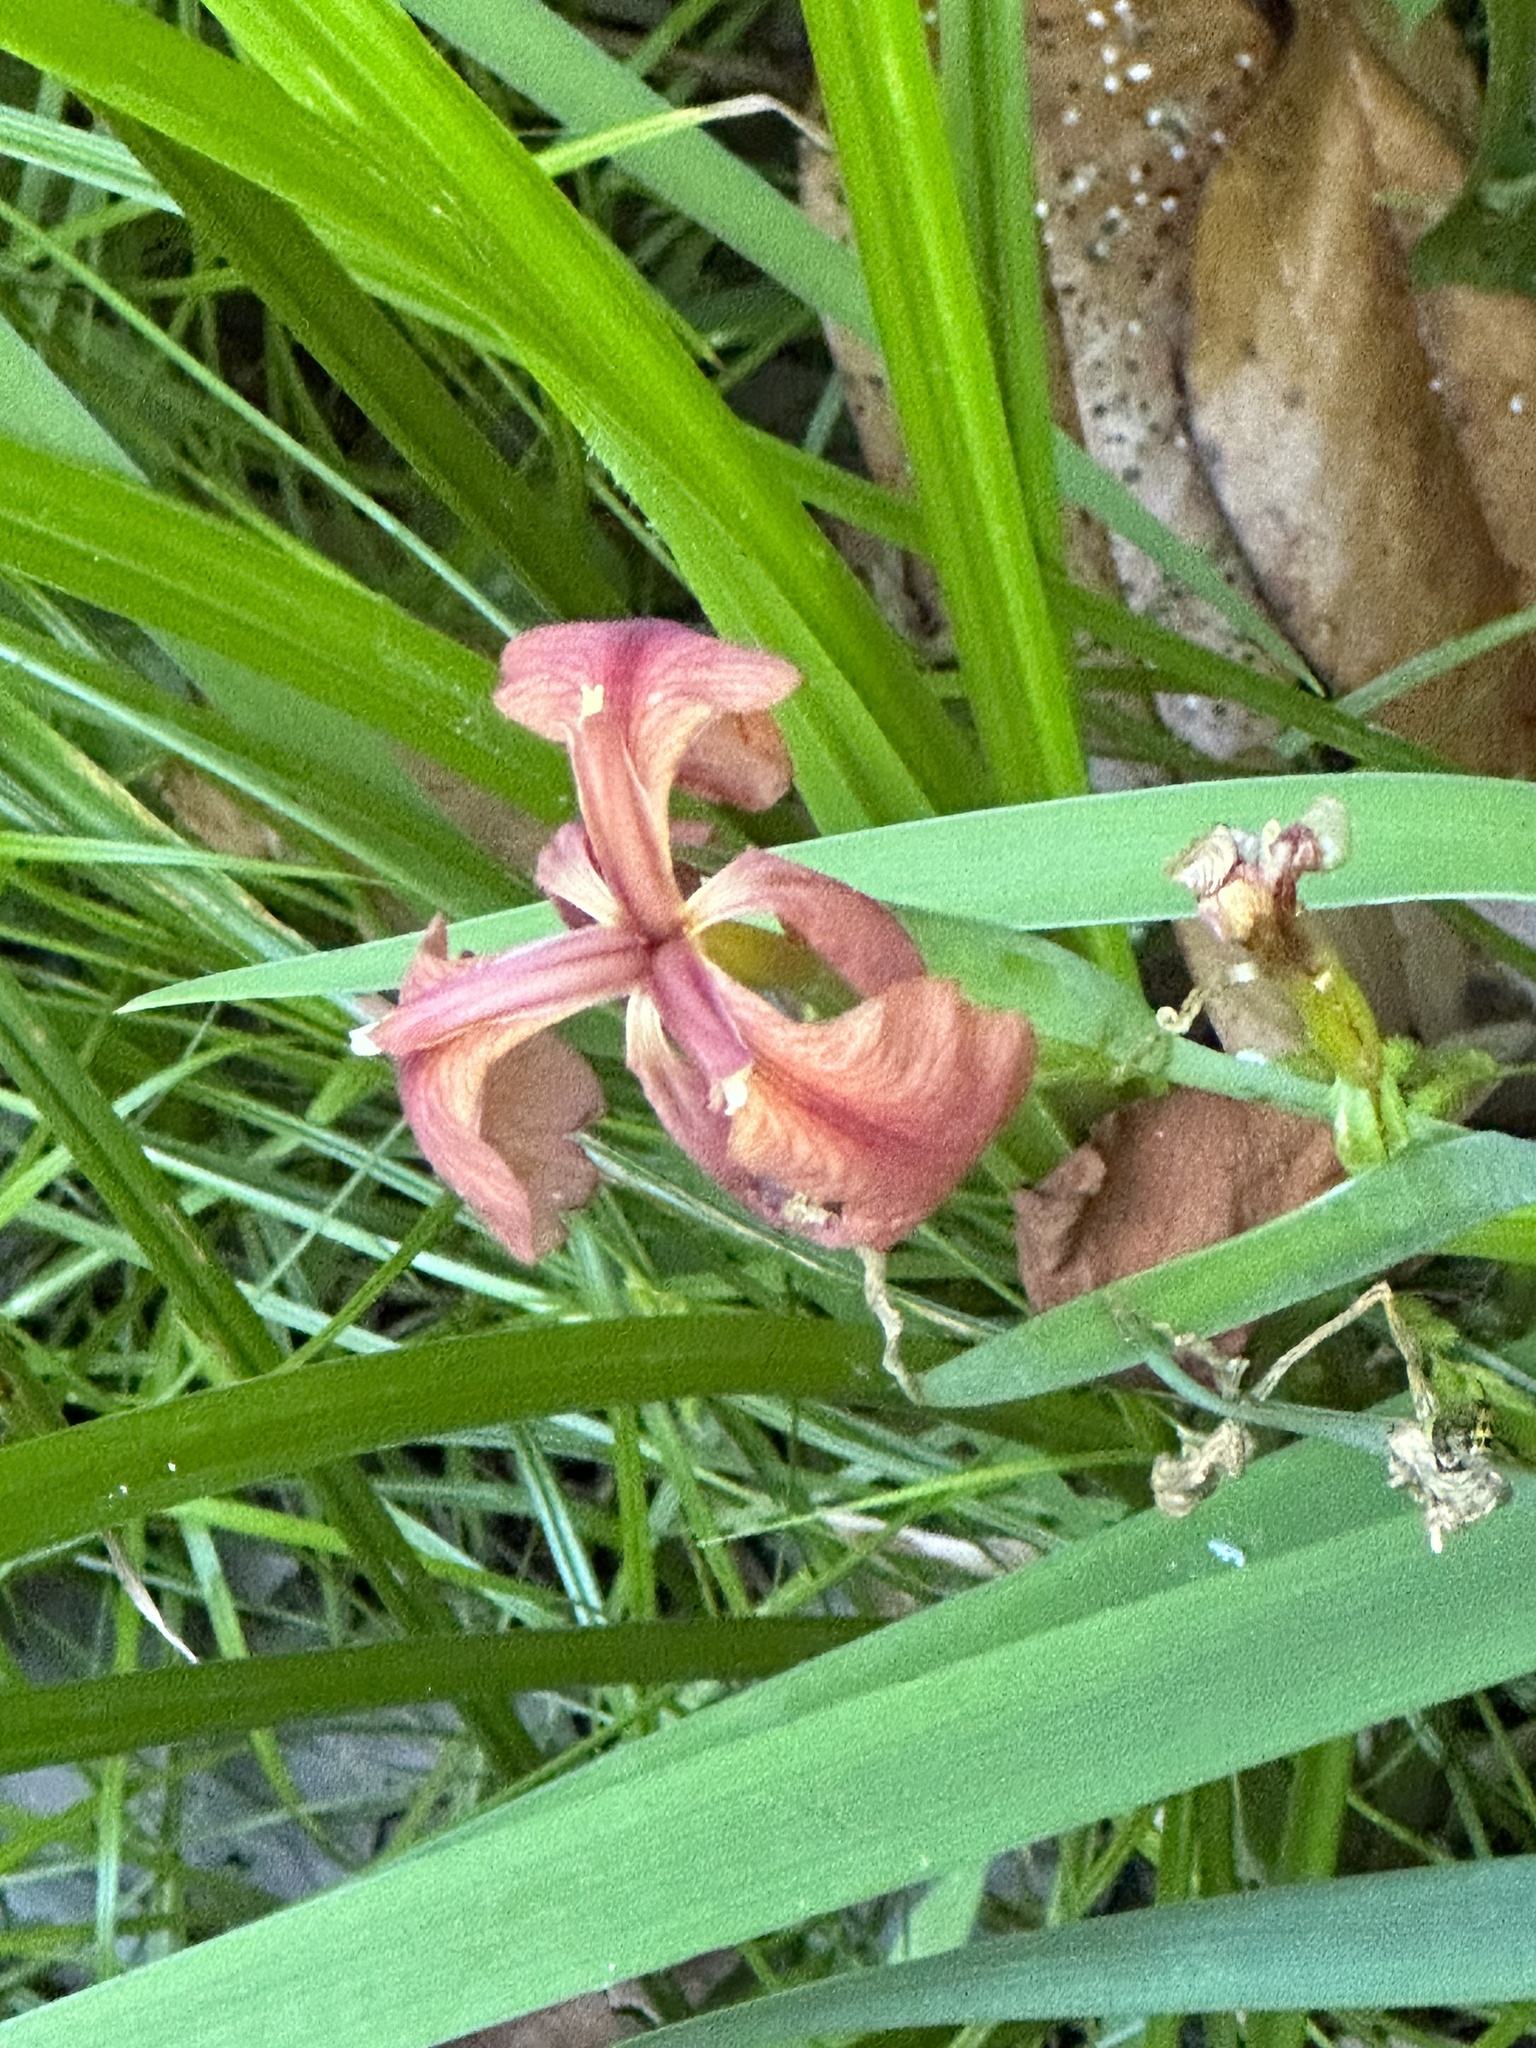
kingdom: Plantae
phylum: Tracheophyta
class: Liliopsida
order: Asparagales
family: Iridaceae
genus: Iris
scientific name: Iris fulva
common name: Copper iris
